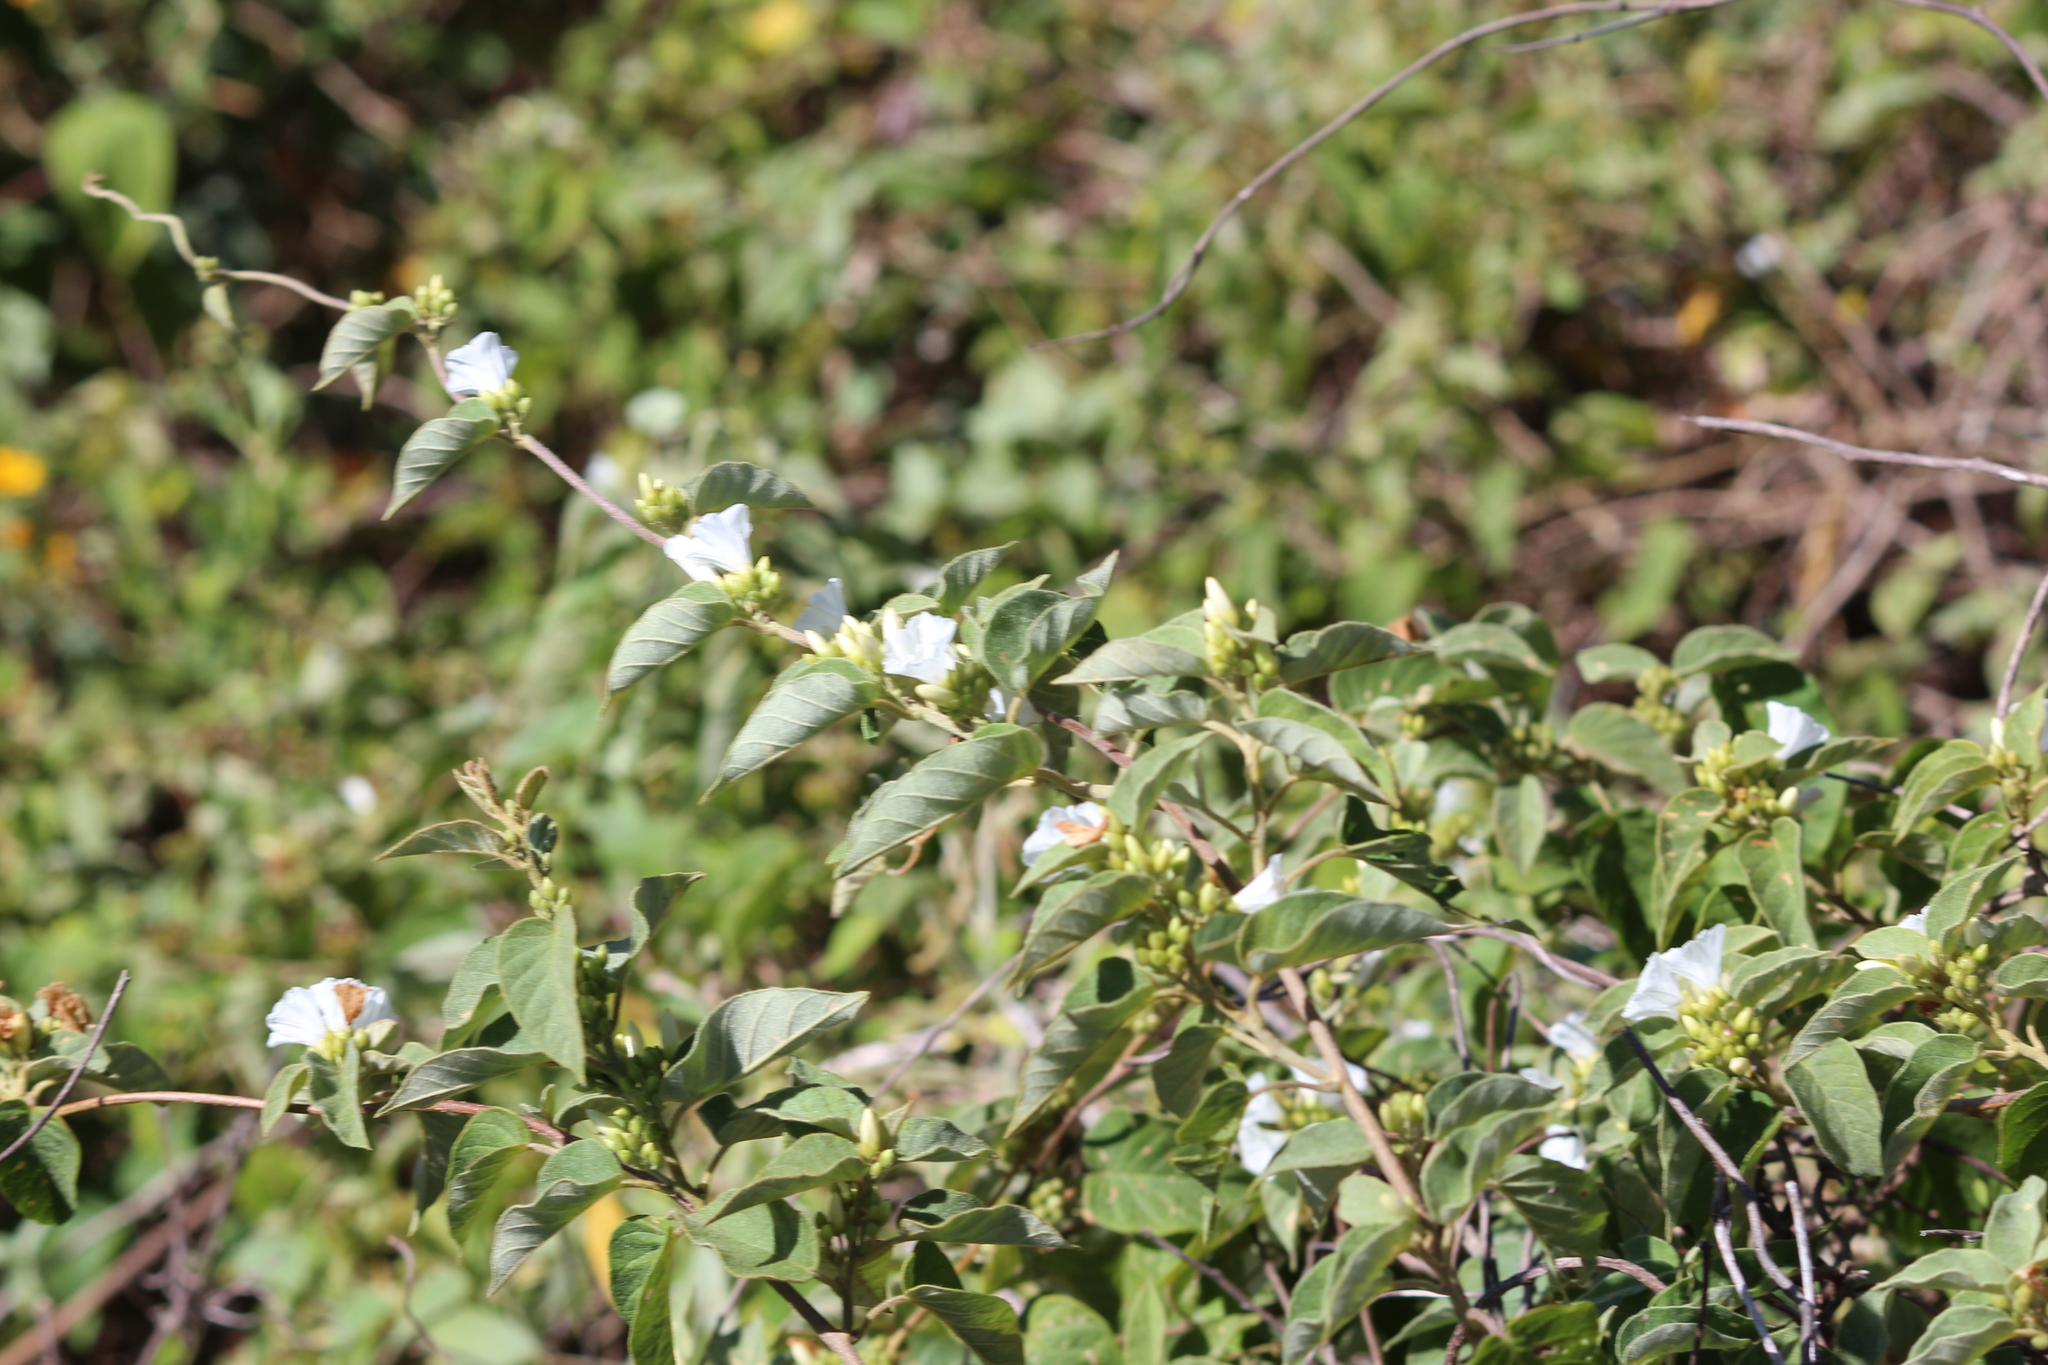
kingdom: Plantae
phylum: Tracheophyta
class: Magnoliopsida
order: Solanales
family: Convolvulaceae
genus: Ipomoea
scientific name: Ipomoea batatas
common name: Sweet-potato
